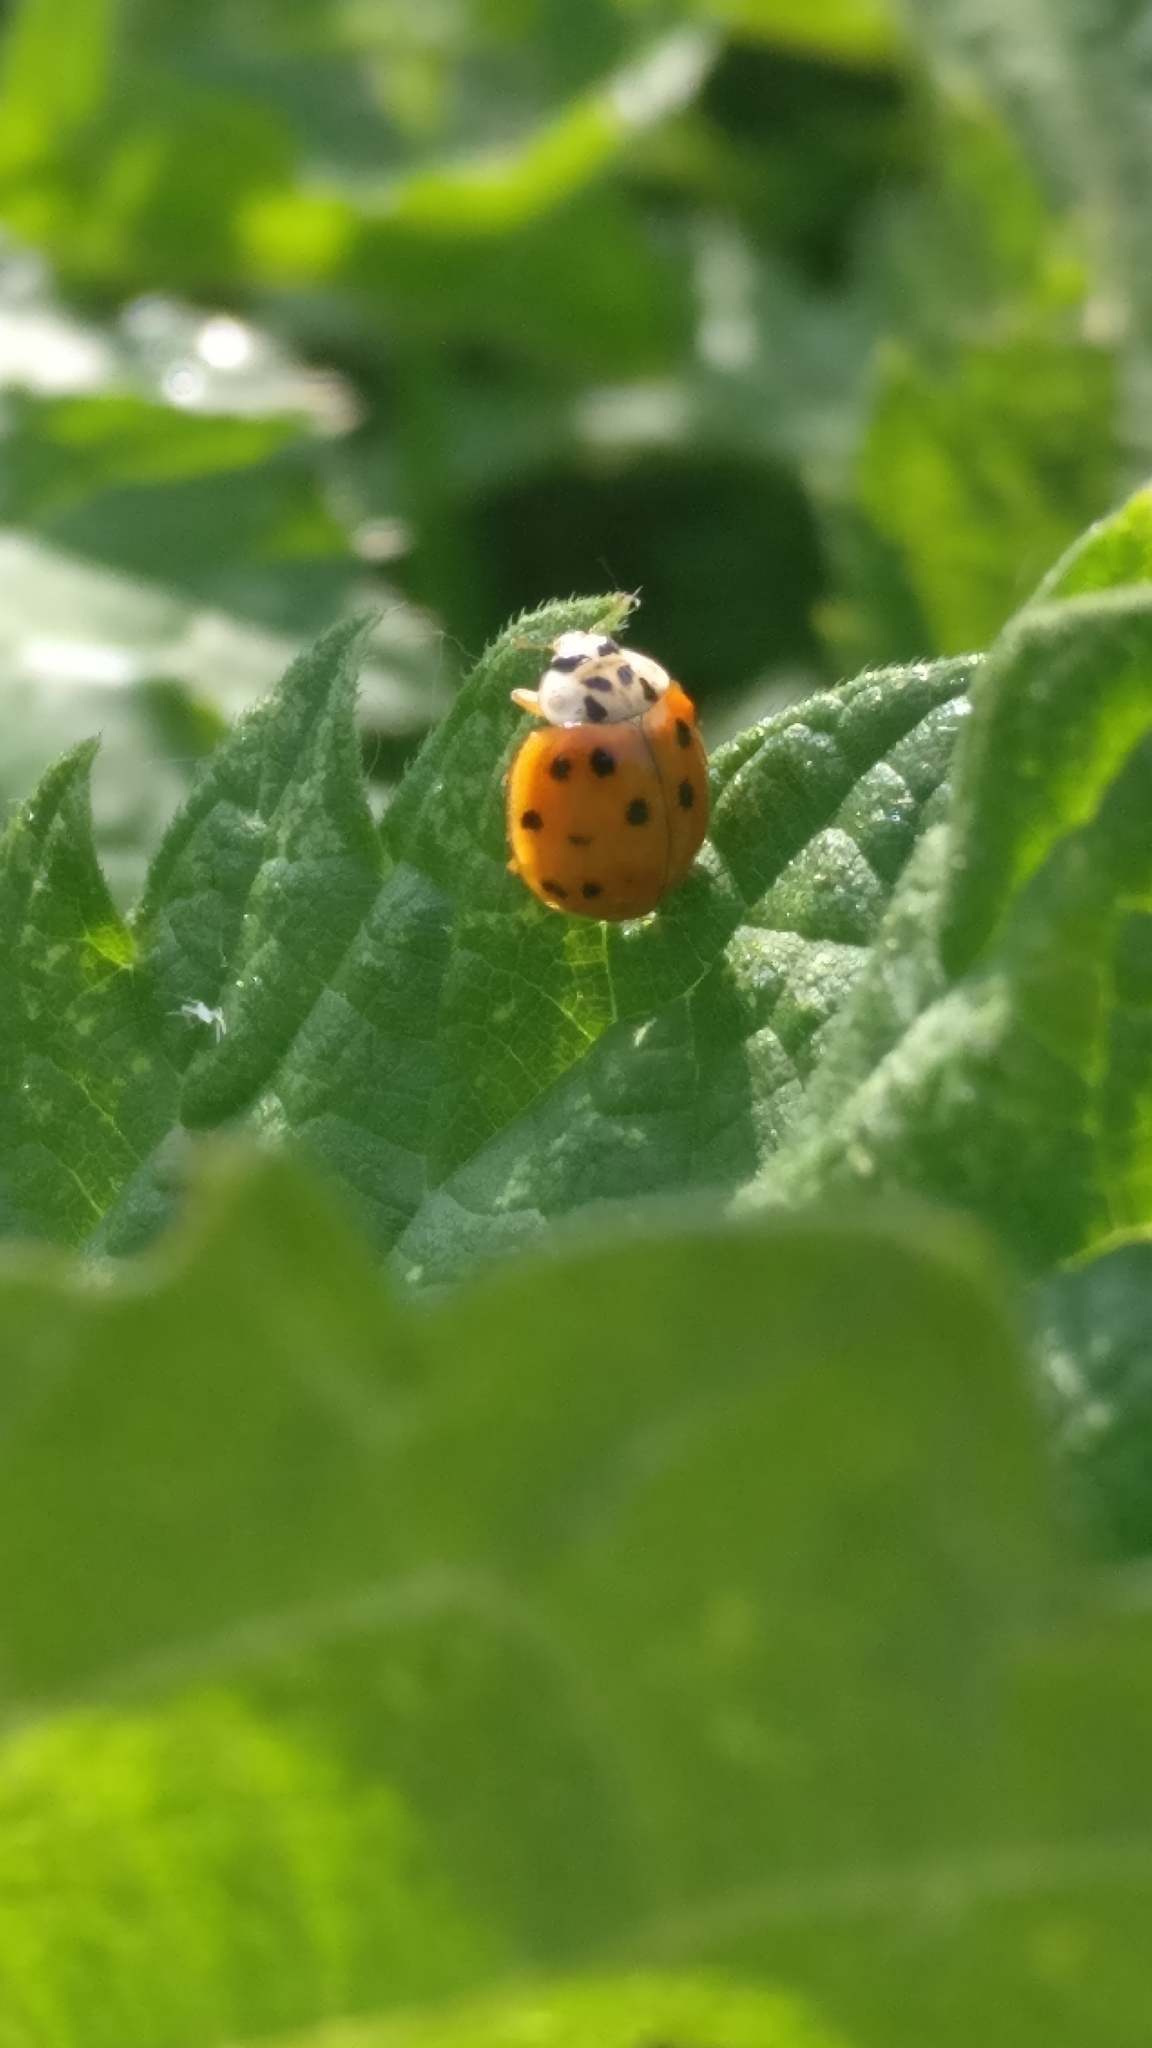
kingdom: Animalia
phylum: Arthropoda
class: Insecta
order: Coleoptera
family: Coccinellidae
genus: Harmonia
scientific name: Harmonia axyridis
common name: Harlequin ladybird
